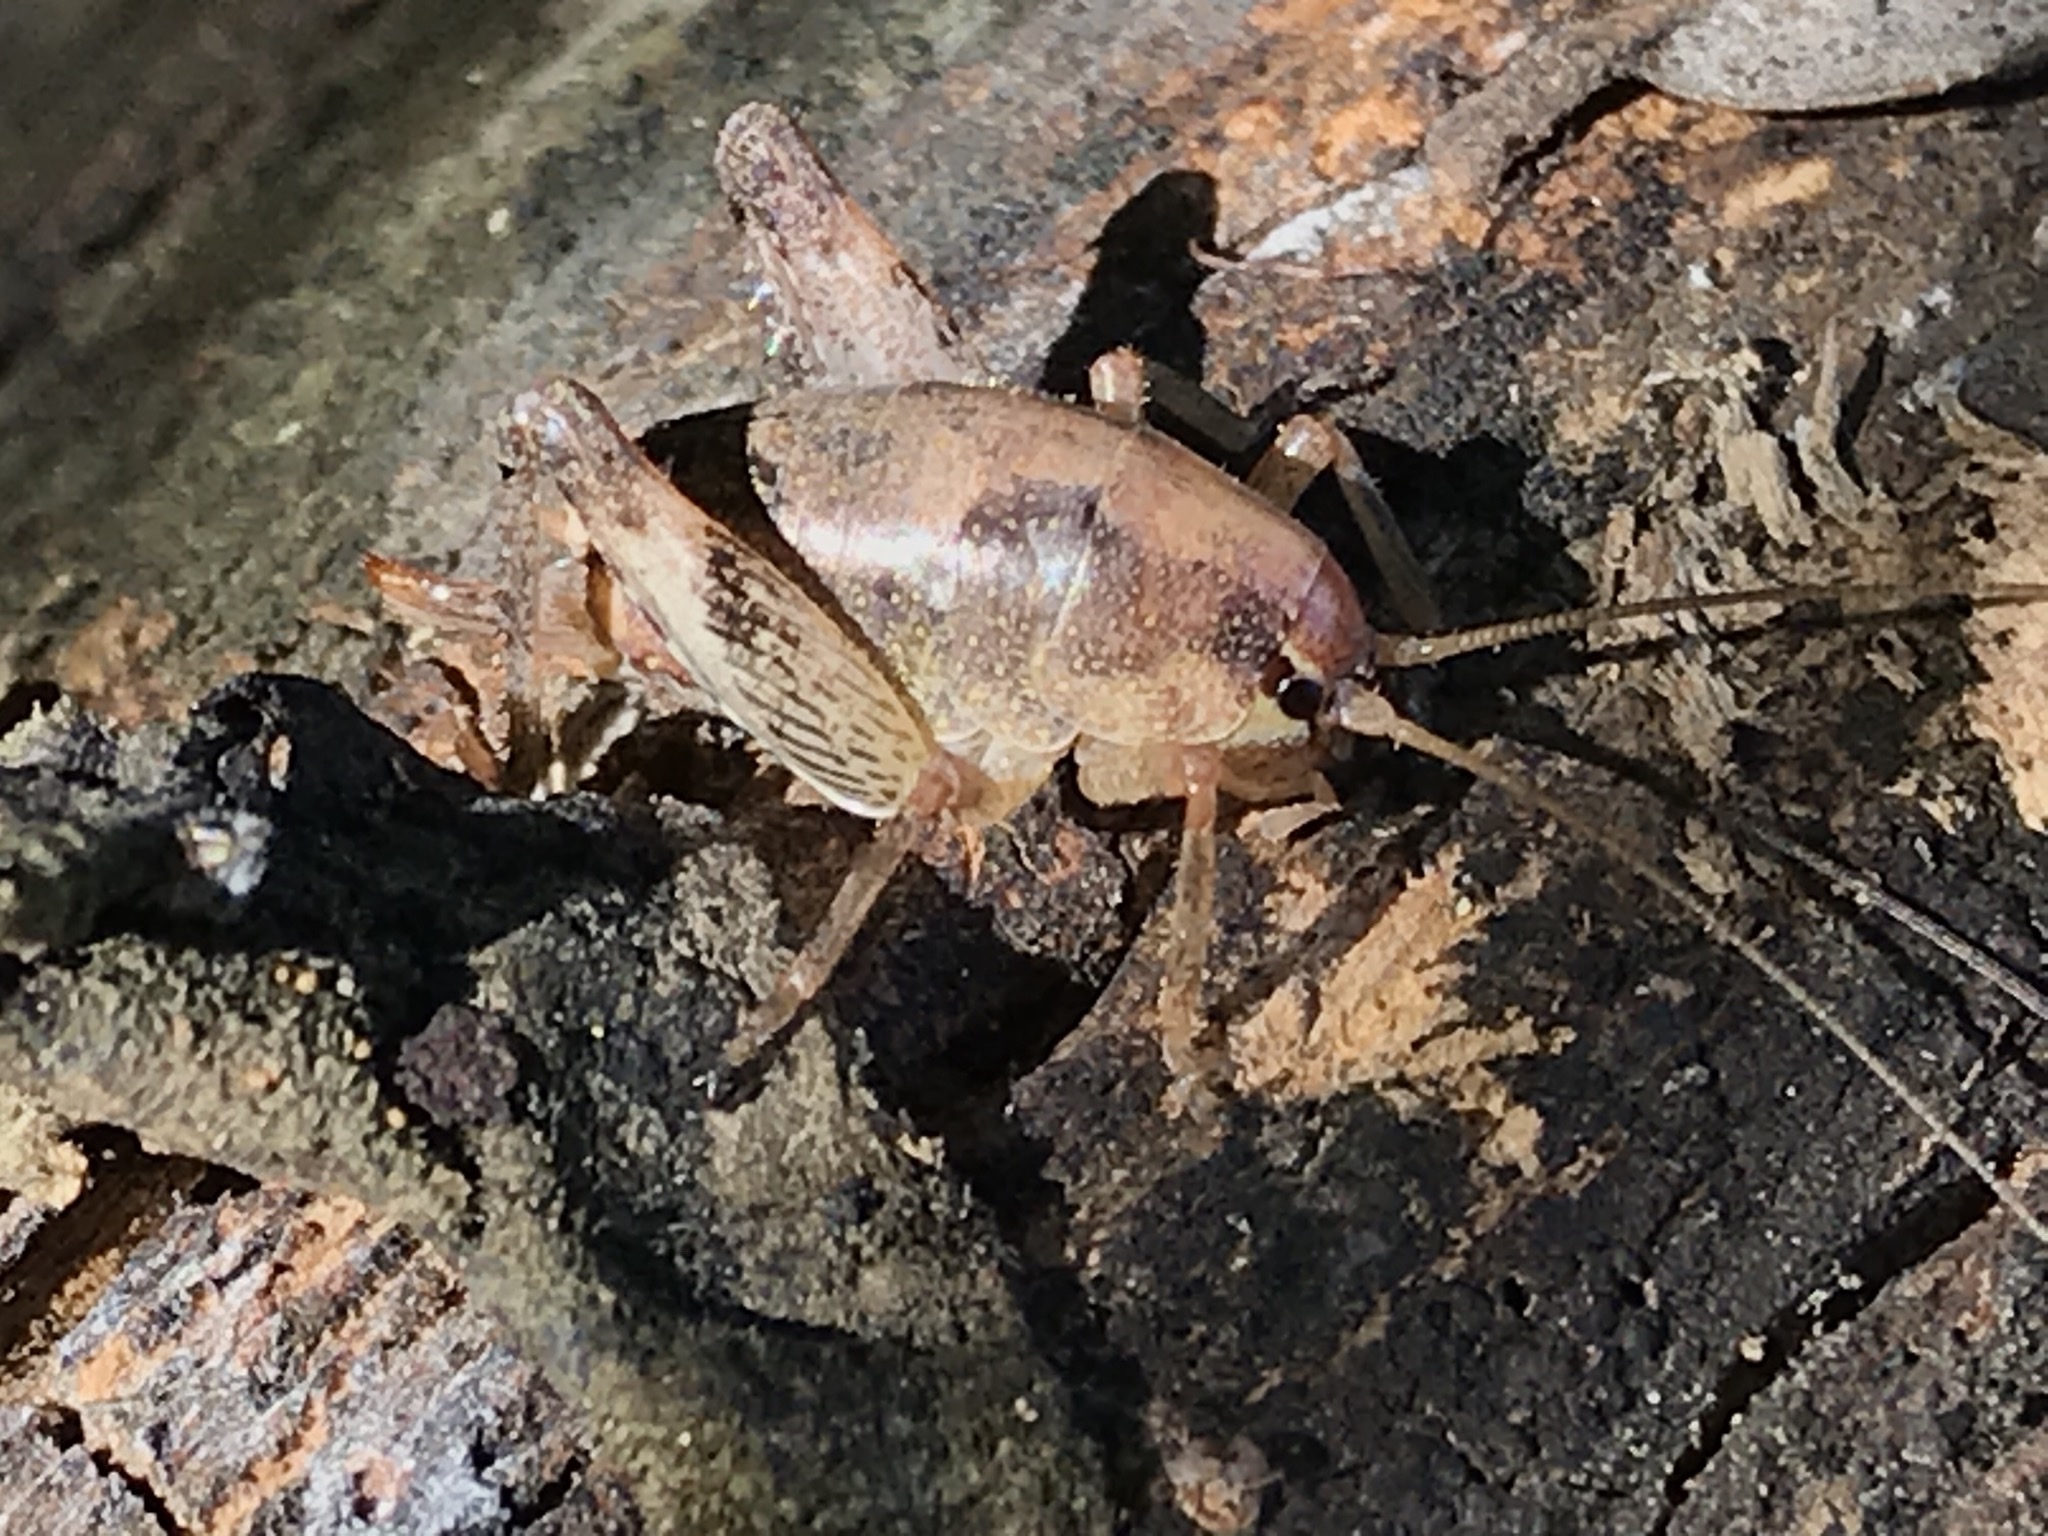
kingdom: Animalia
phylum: Arthropoda
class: Insecta
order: Orthoptera
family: Rhaphidophoridae
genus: Gammarotettix
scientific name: Gammarotettix genitalis
